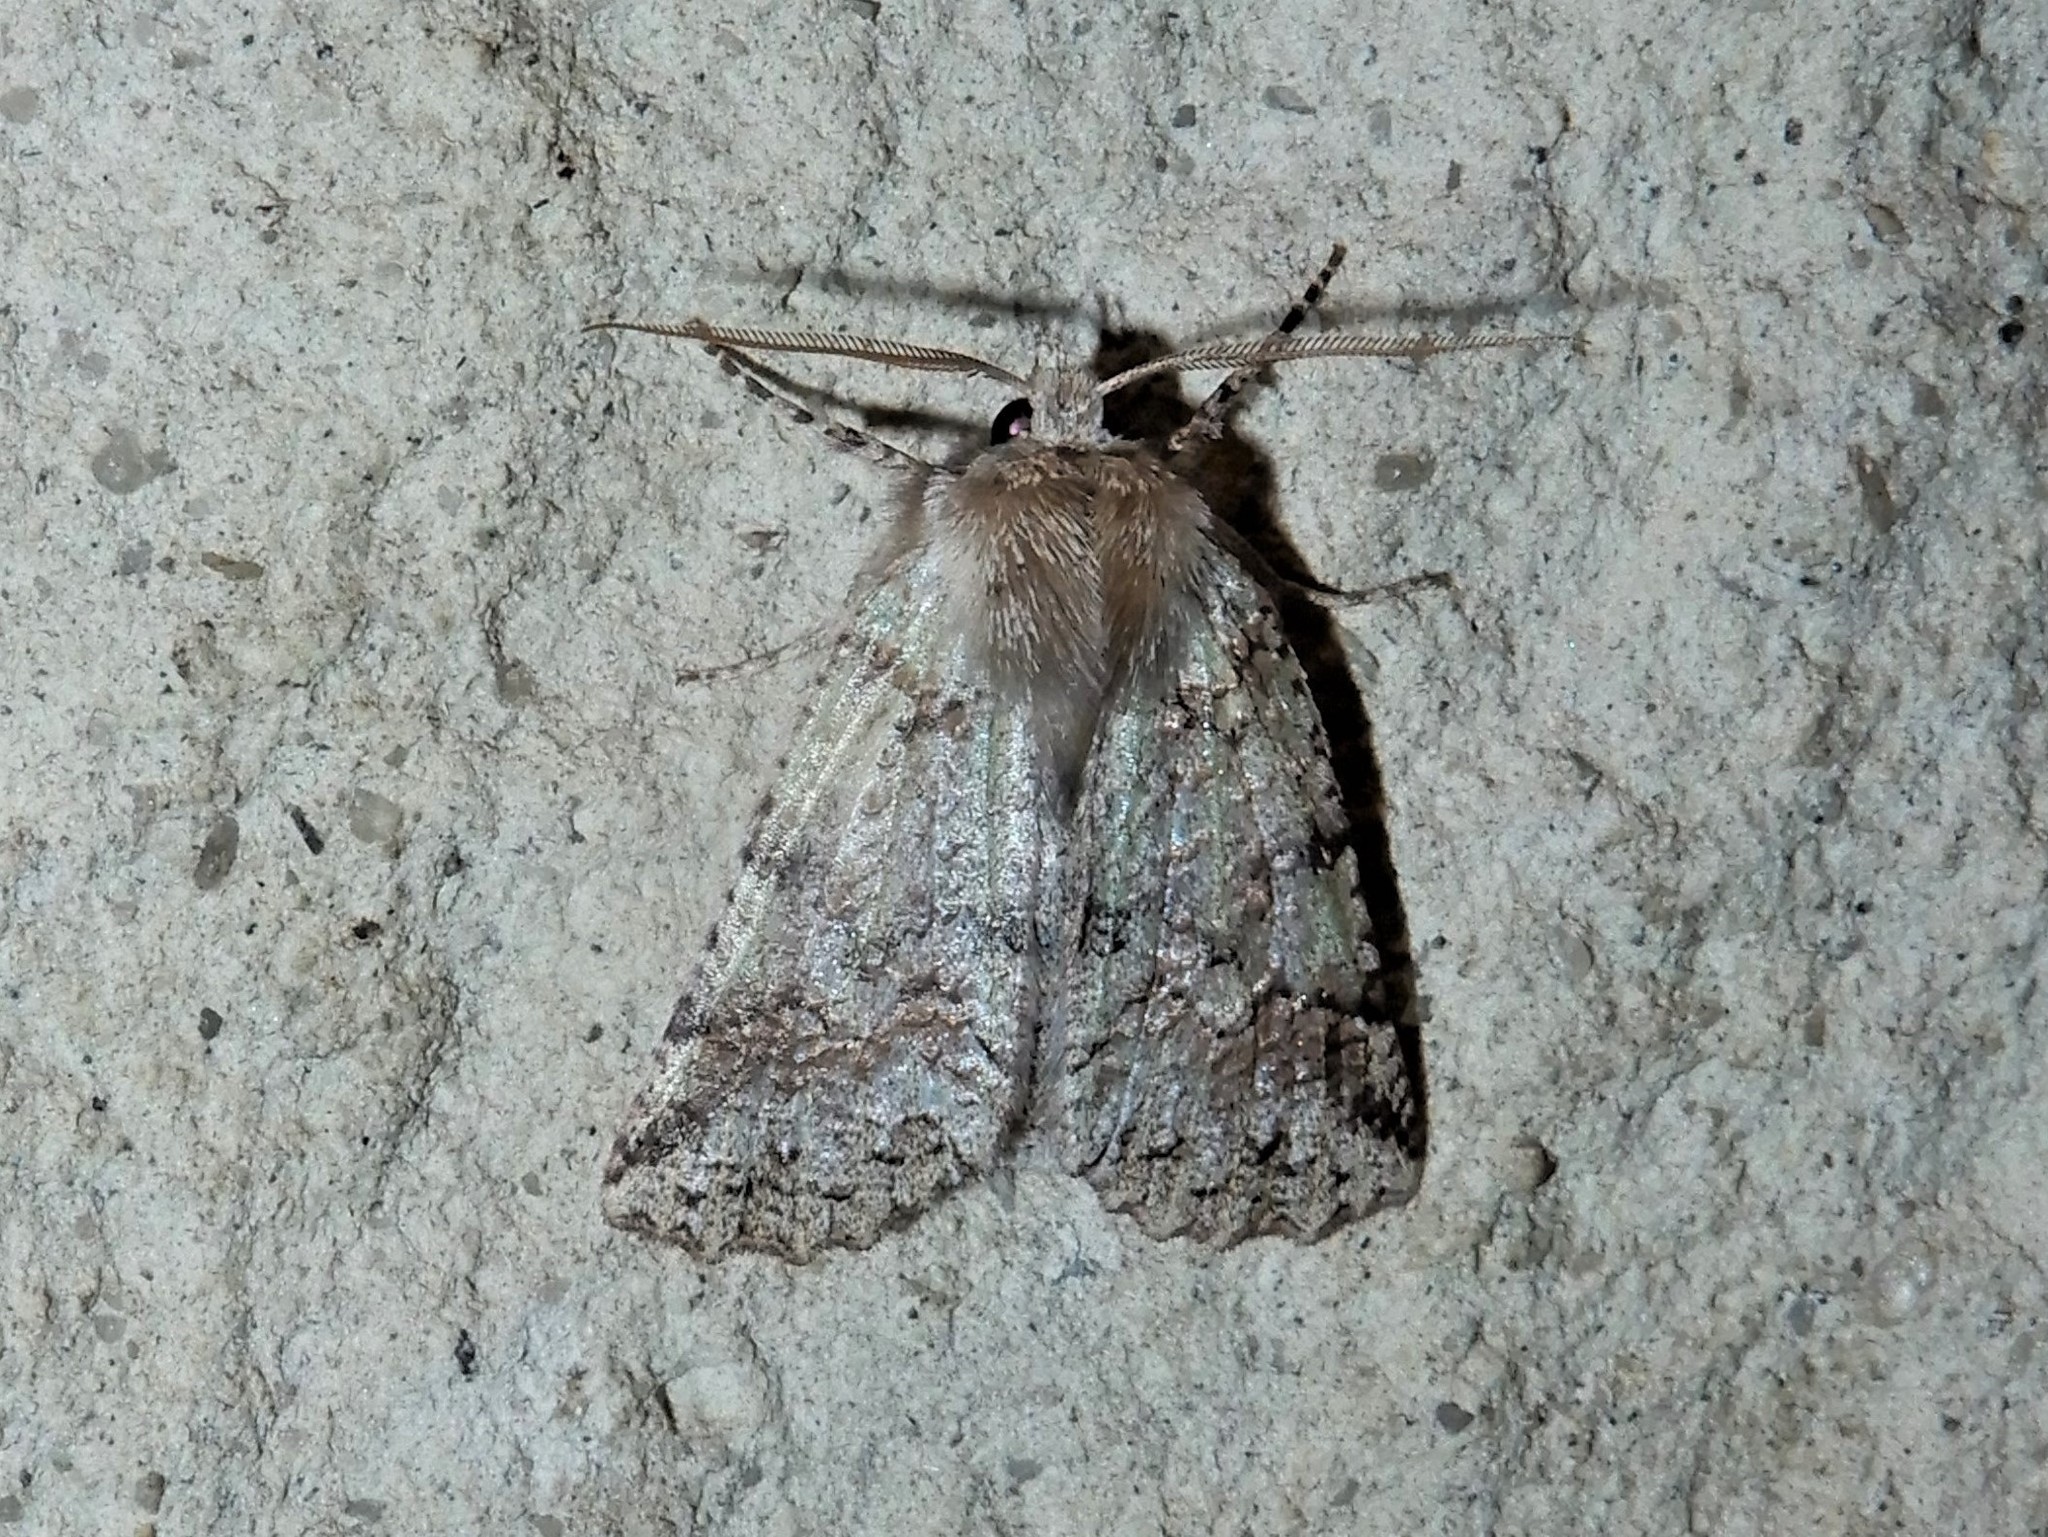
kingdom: Animalia
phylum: Arthropoda
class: Insecta
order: Lepidoptera
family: Geometridae
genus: Declana
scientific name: Declana floccosa
